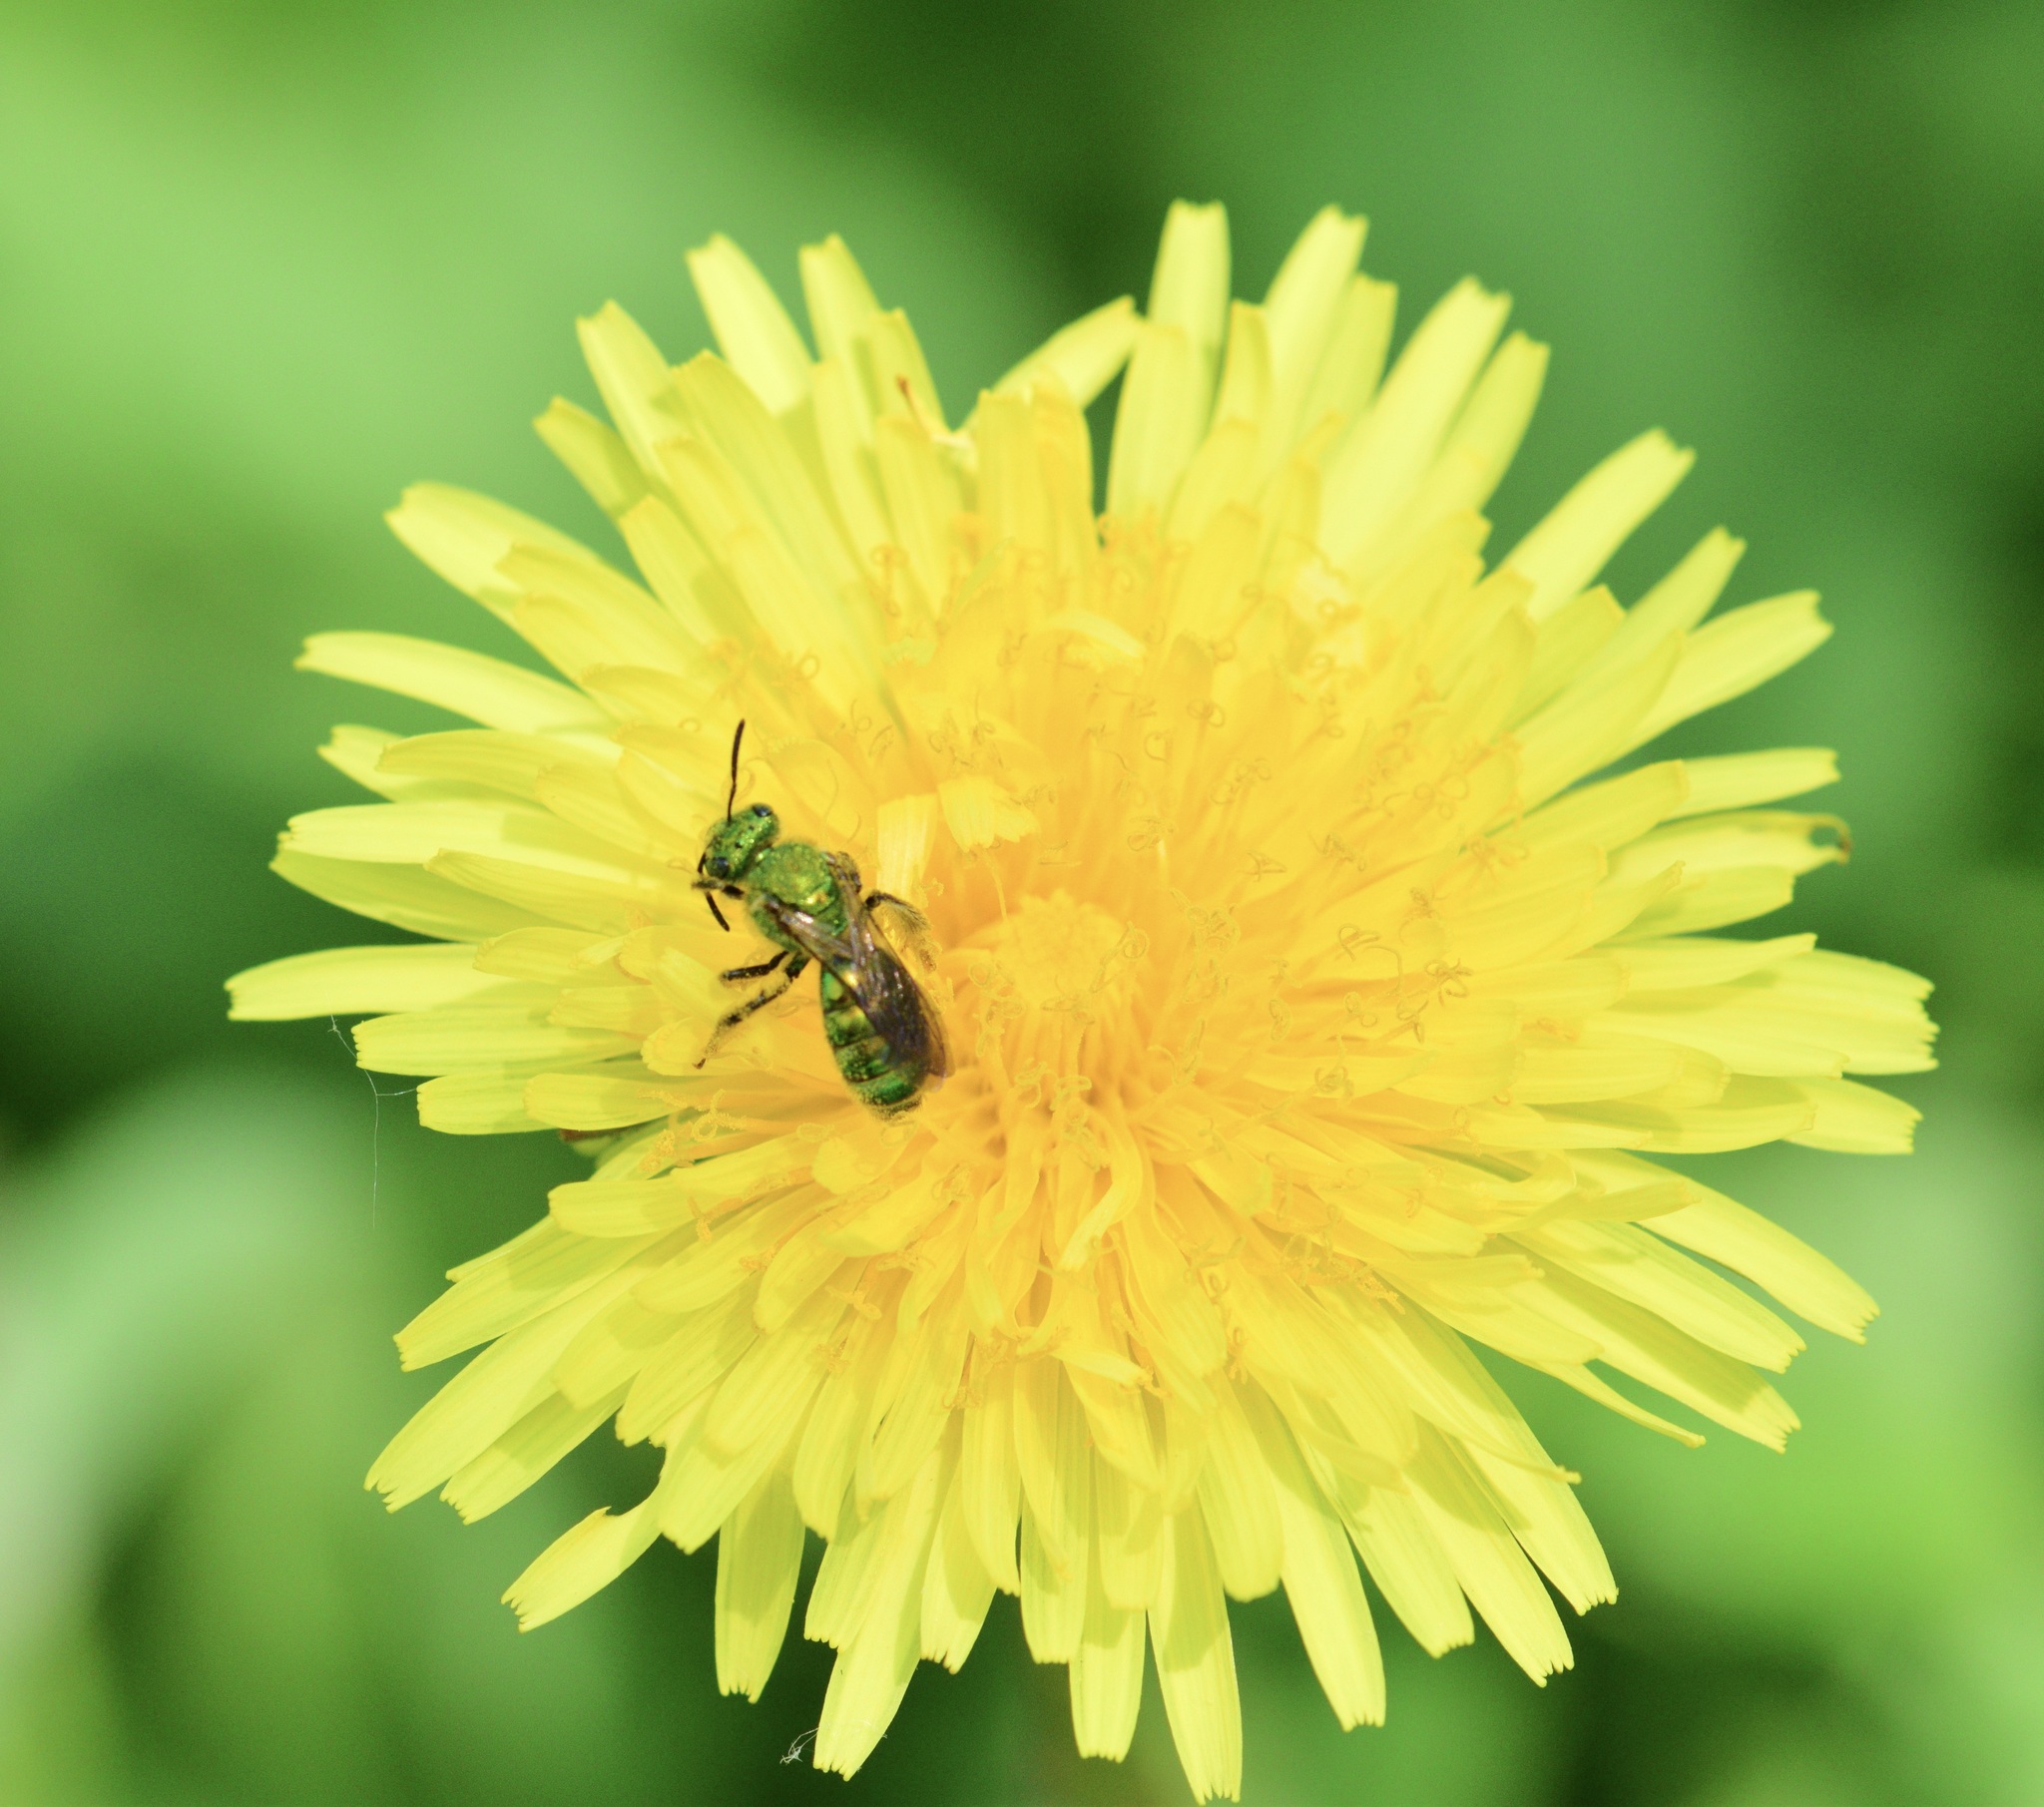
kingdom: Animalia
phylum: Arthropoda
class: Insecta
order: Hymenoptera
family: Halictidae
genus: Agapostemon
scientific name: Agapostemon sericeus
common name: Silky striped sweat bee
